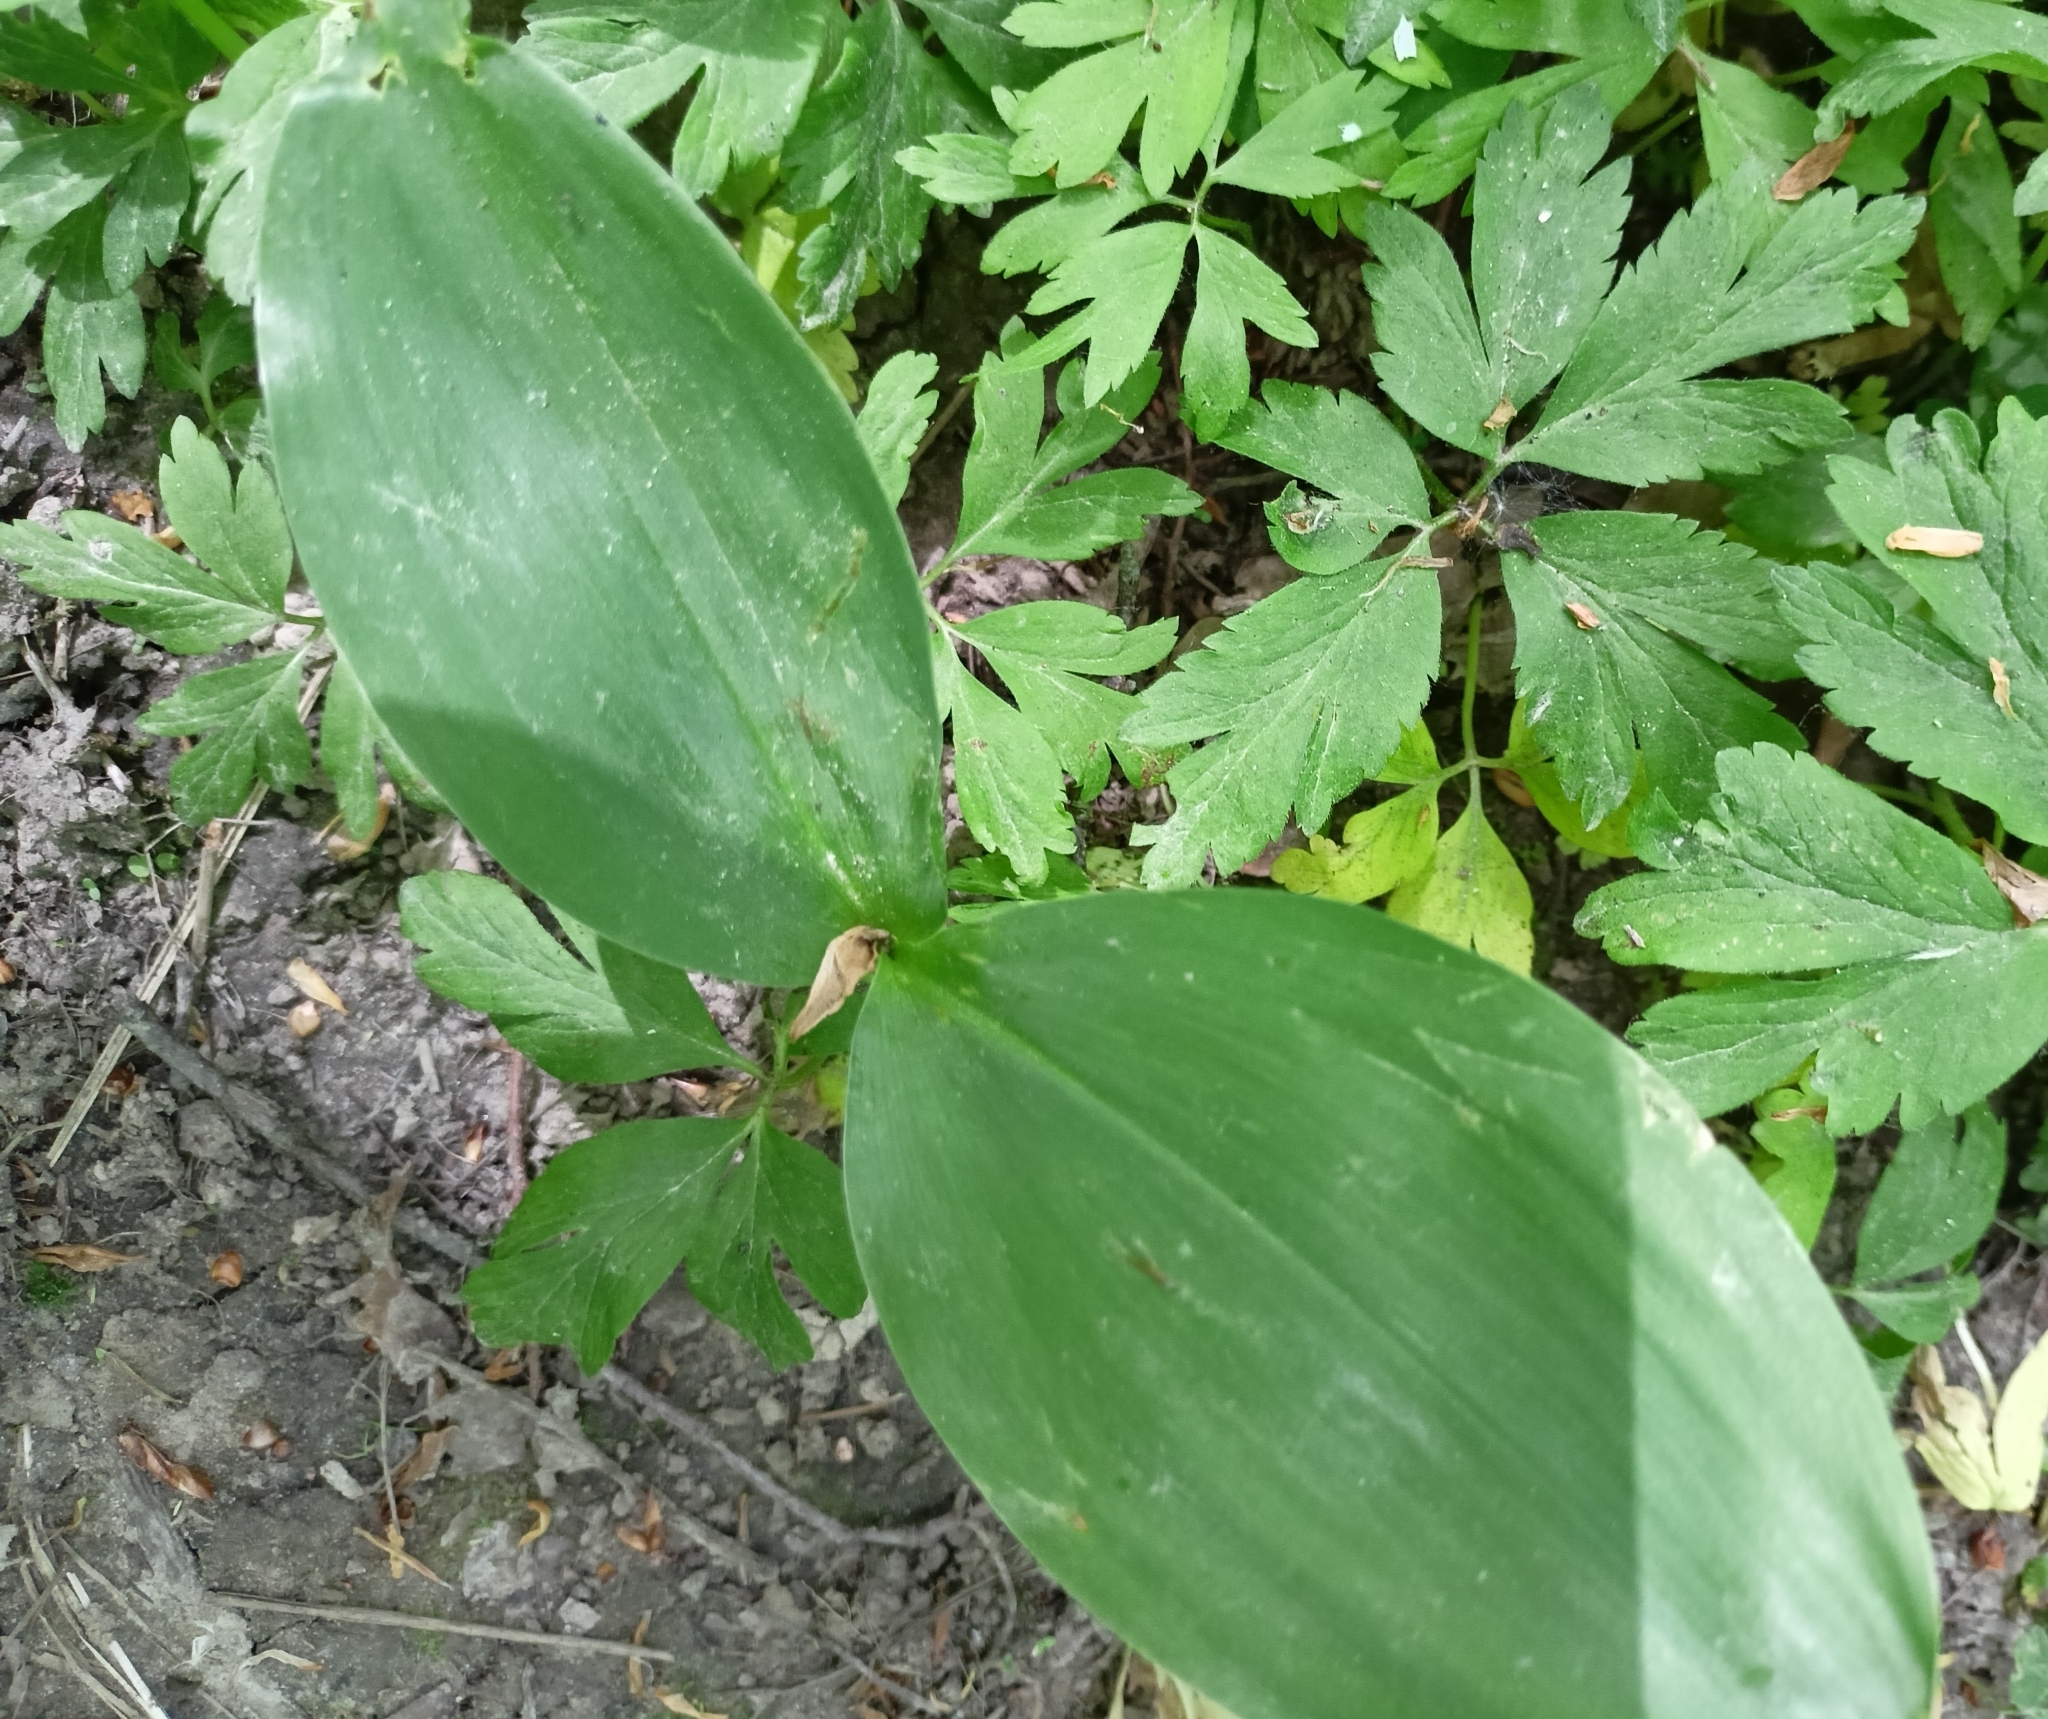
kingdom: Plantae
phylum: Tracheophyta
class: Liliopsida
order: Asparagales
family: Asparagaceae
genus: Convallaria
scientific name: Convallaria majalis
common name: Lily-of-the-valley
